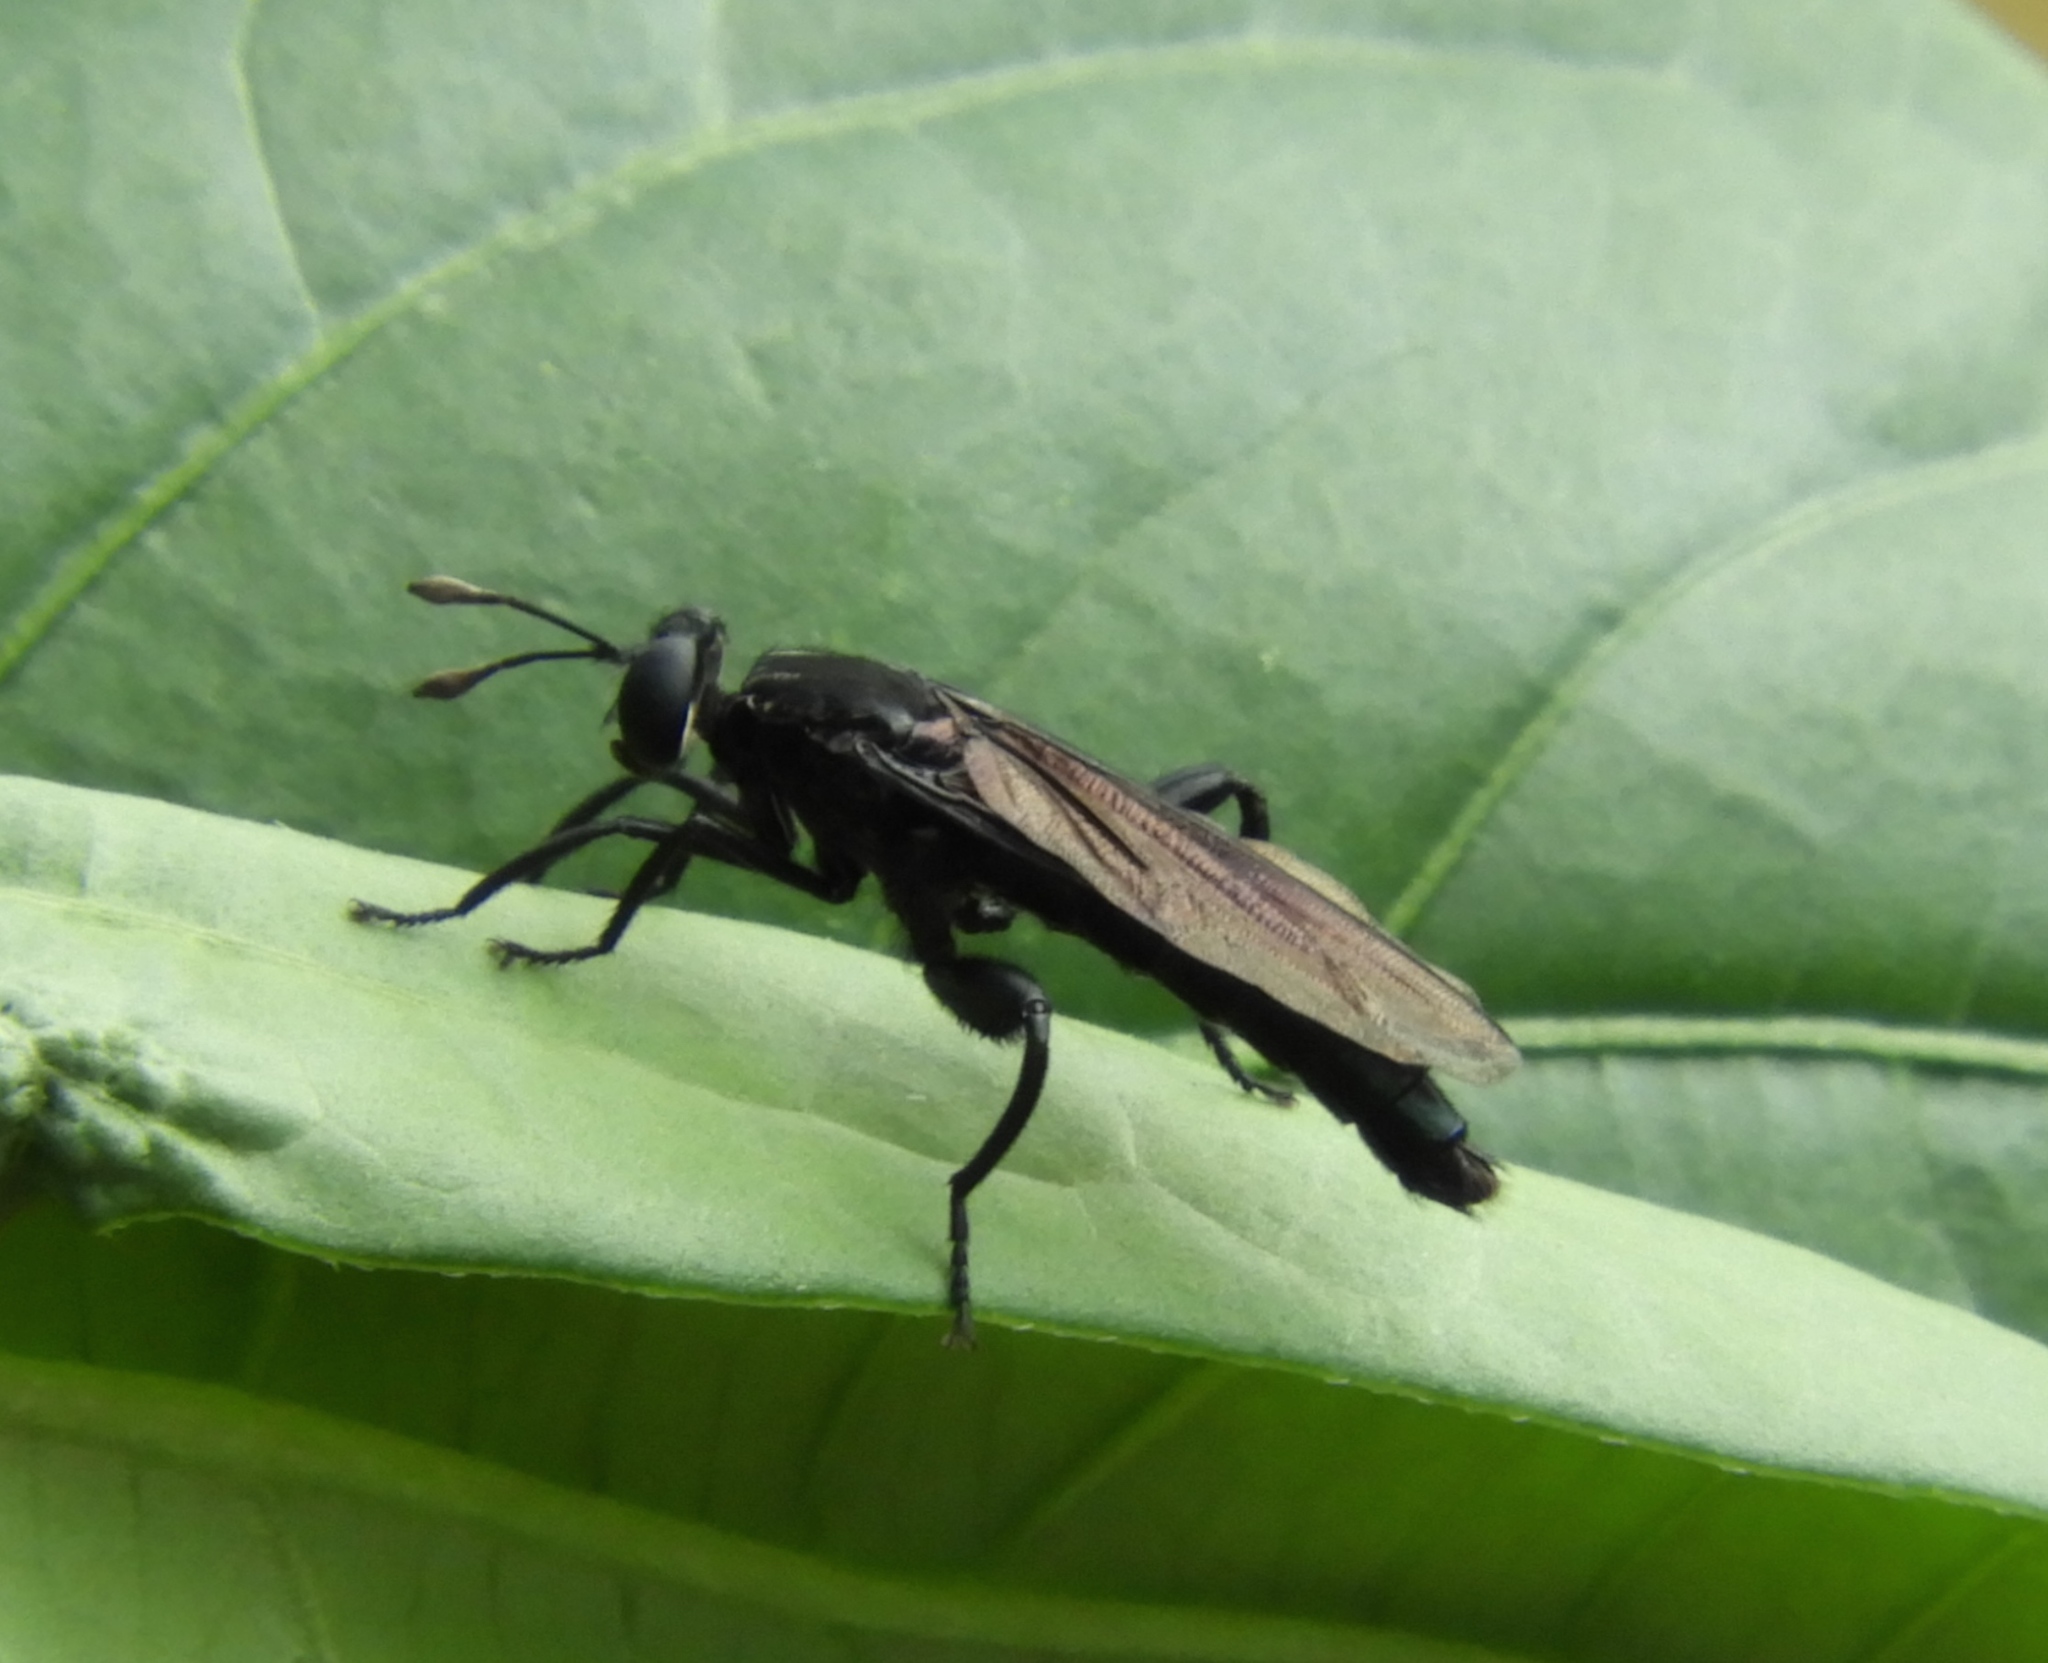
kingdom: Animalia
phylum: Arthropoda
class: Insecta
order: Diptera
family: Mydidae
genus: Stratiomydas
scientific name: Stratiomydas
